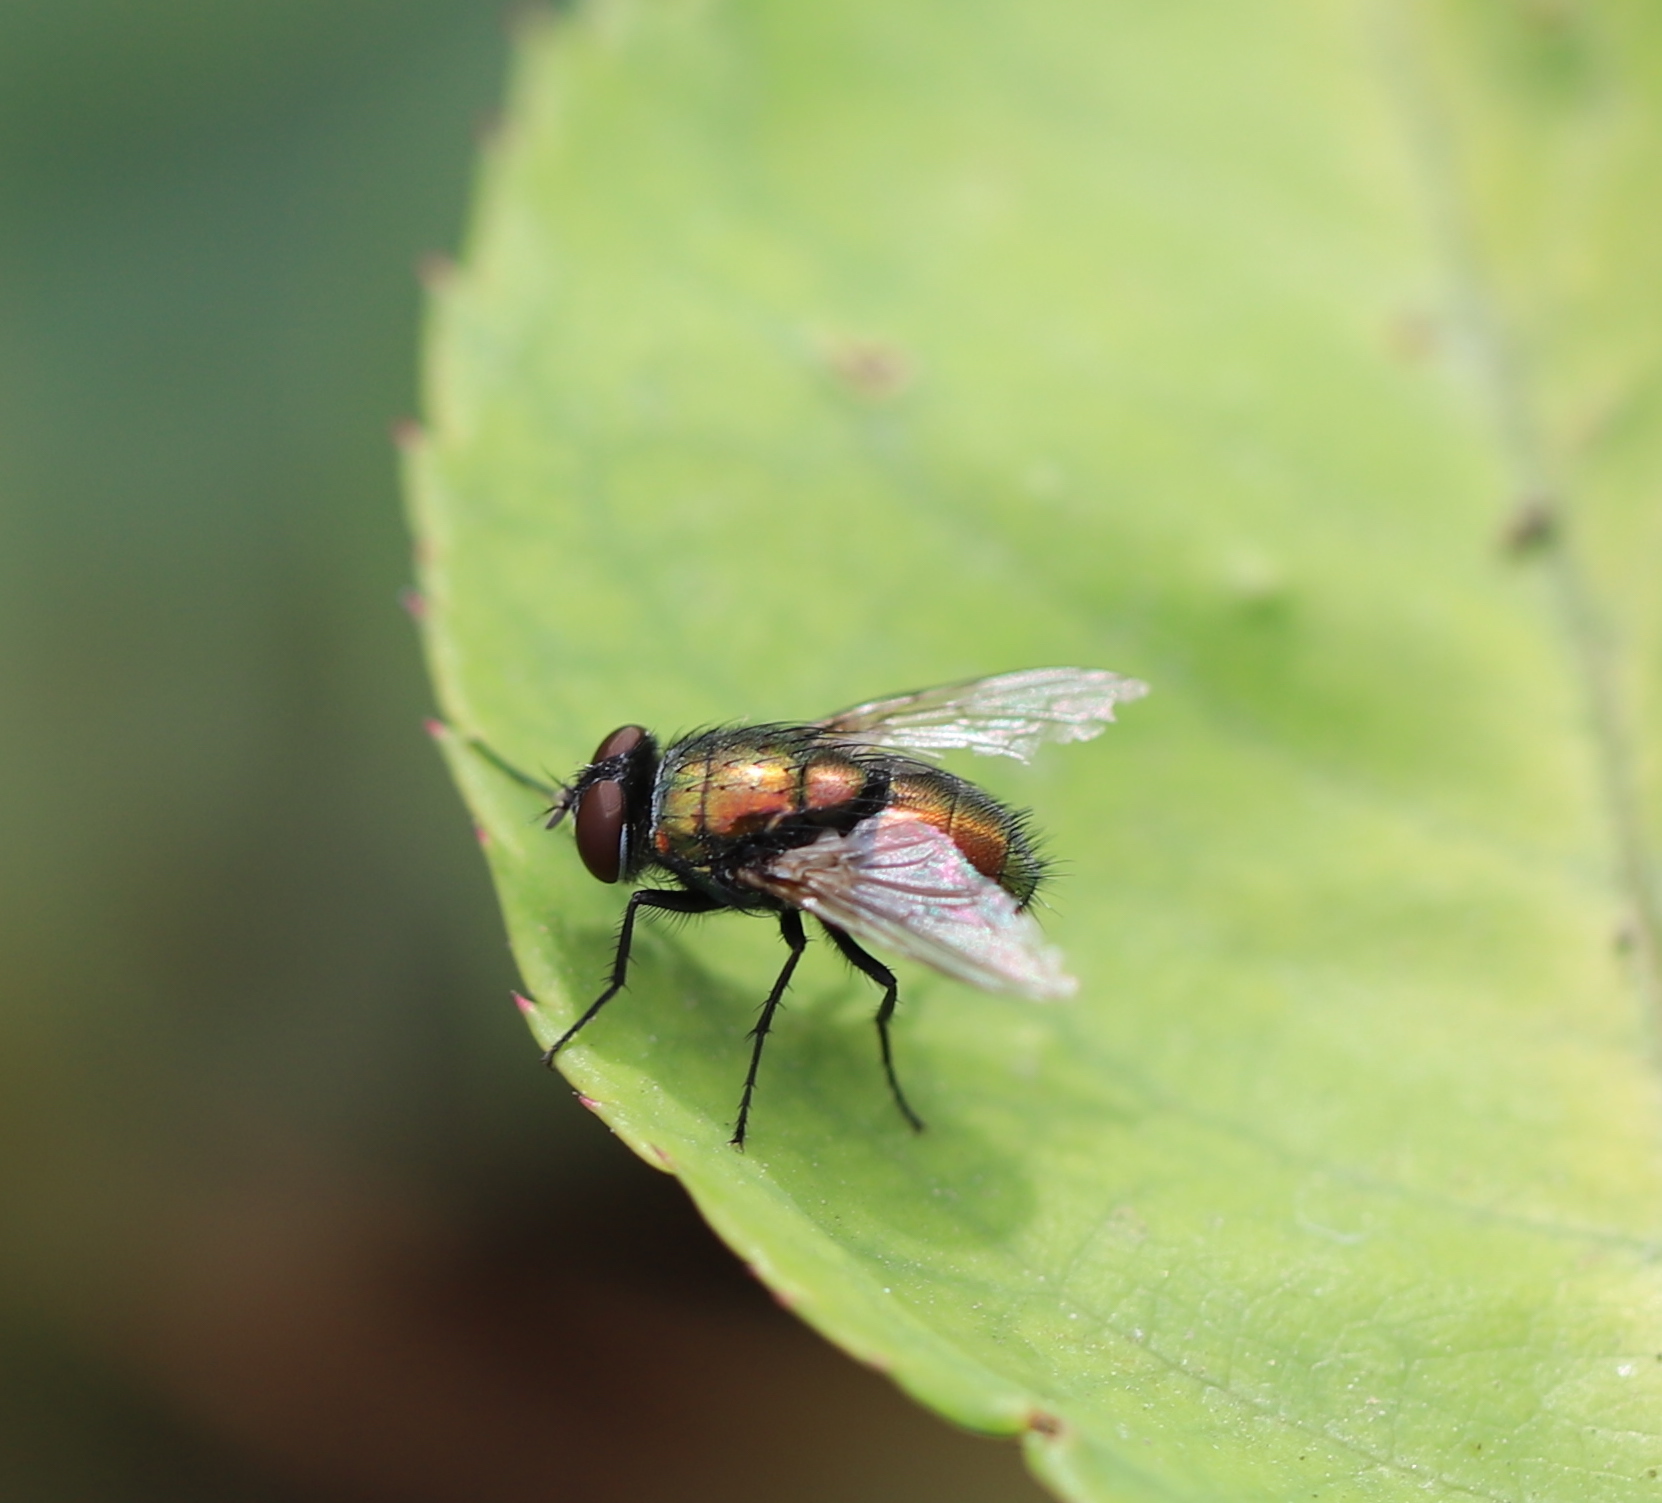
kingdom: Animalia
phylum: Arthropoda
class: Insecta
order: Diptera
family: Calliphoridae
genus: Lucilia
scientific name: Lucilia sericata
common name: Blow fly
